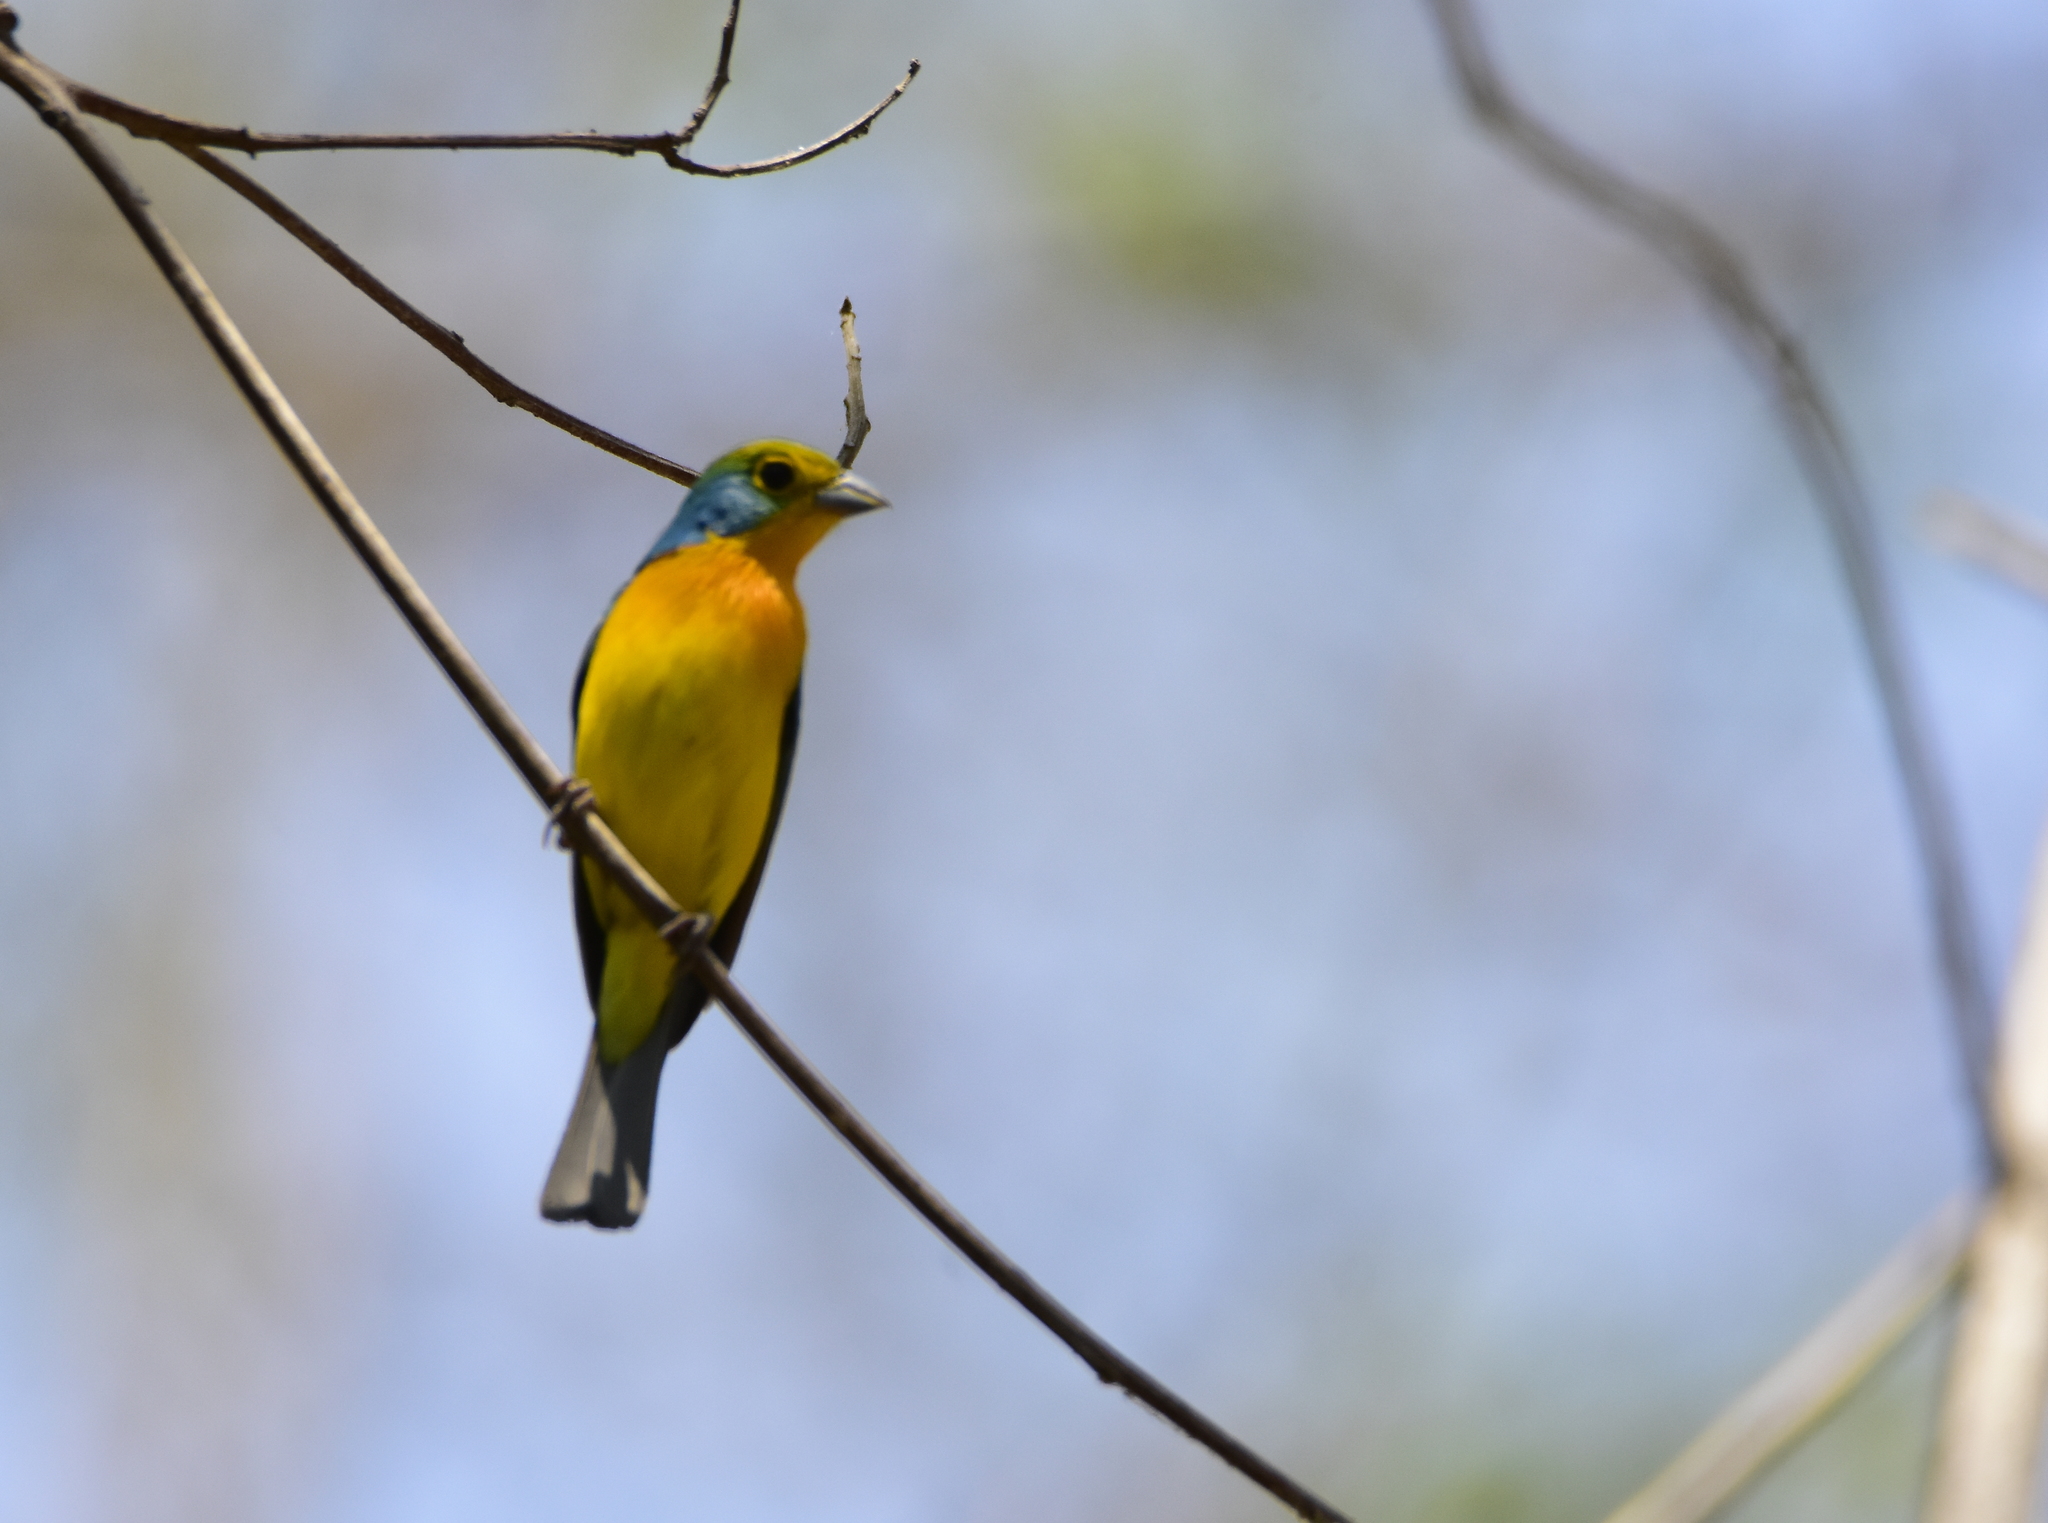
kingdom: Animalia
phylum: Chordata
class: Aves
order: Passeriformes
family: Cardinalidae
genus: Passerina
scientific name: Passerina leclancherii
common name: Orange-breasted bunting
